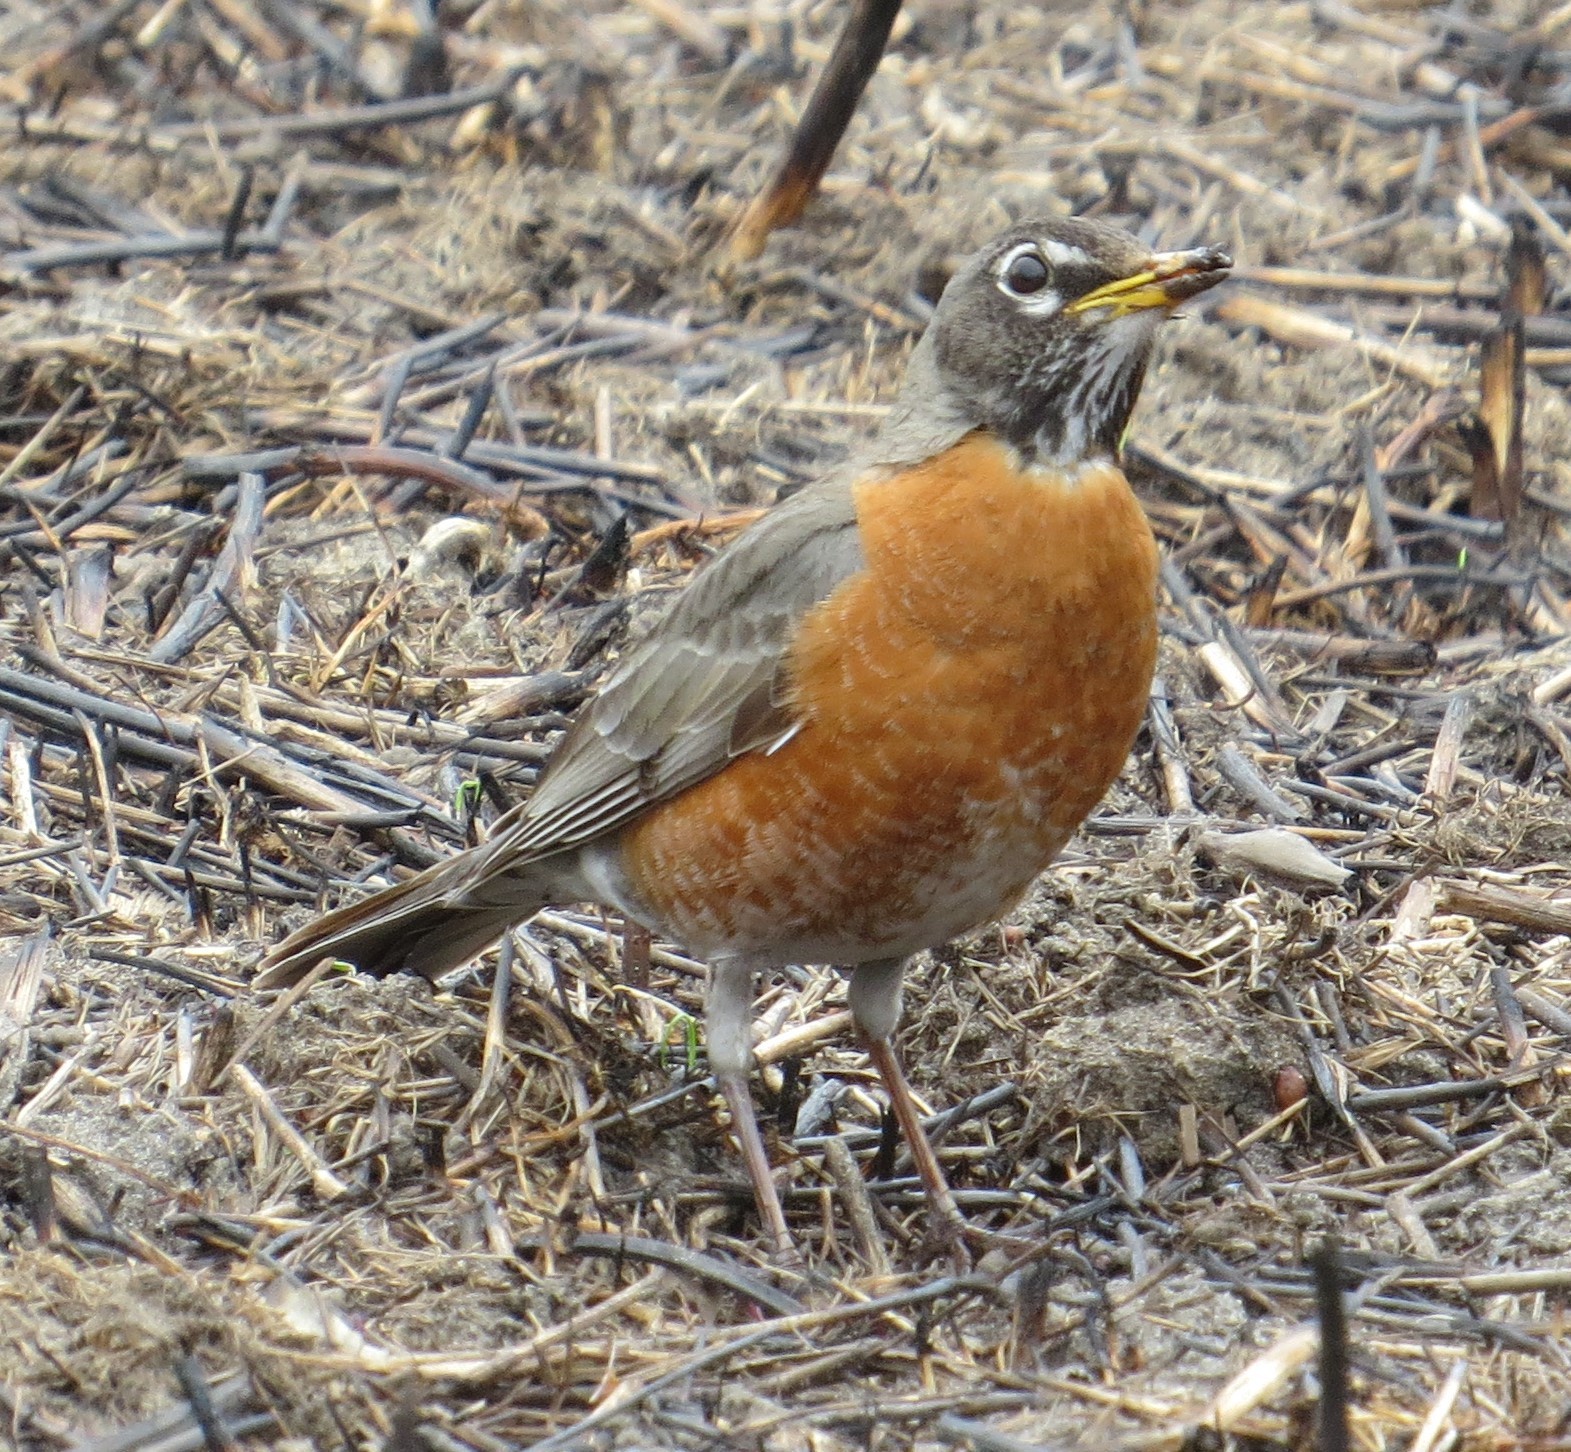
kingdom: Animalia
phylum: Chordata
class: Aves
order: Passeriformes
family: Turdidae
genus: Turdus
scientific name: Turdus migratorius
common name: American robin
